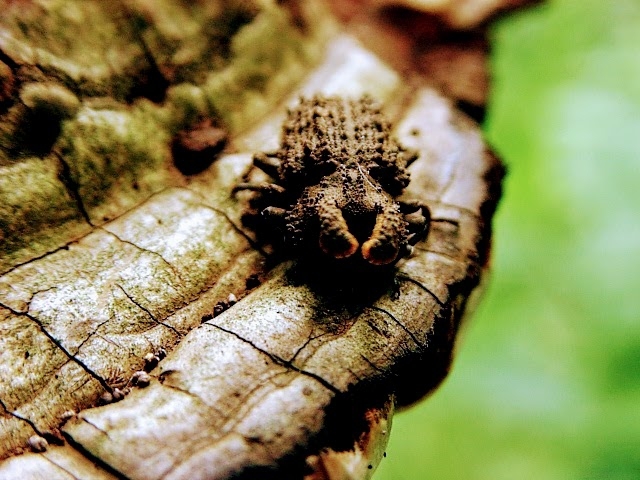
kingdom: Animalia
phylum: Arthropoda
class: Insecta
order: Coleoptera
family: Tenebrionidae
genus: Gnatocerus
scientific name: Gnatocerus cornutus
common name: Broad-horned flour beetle
